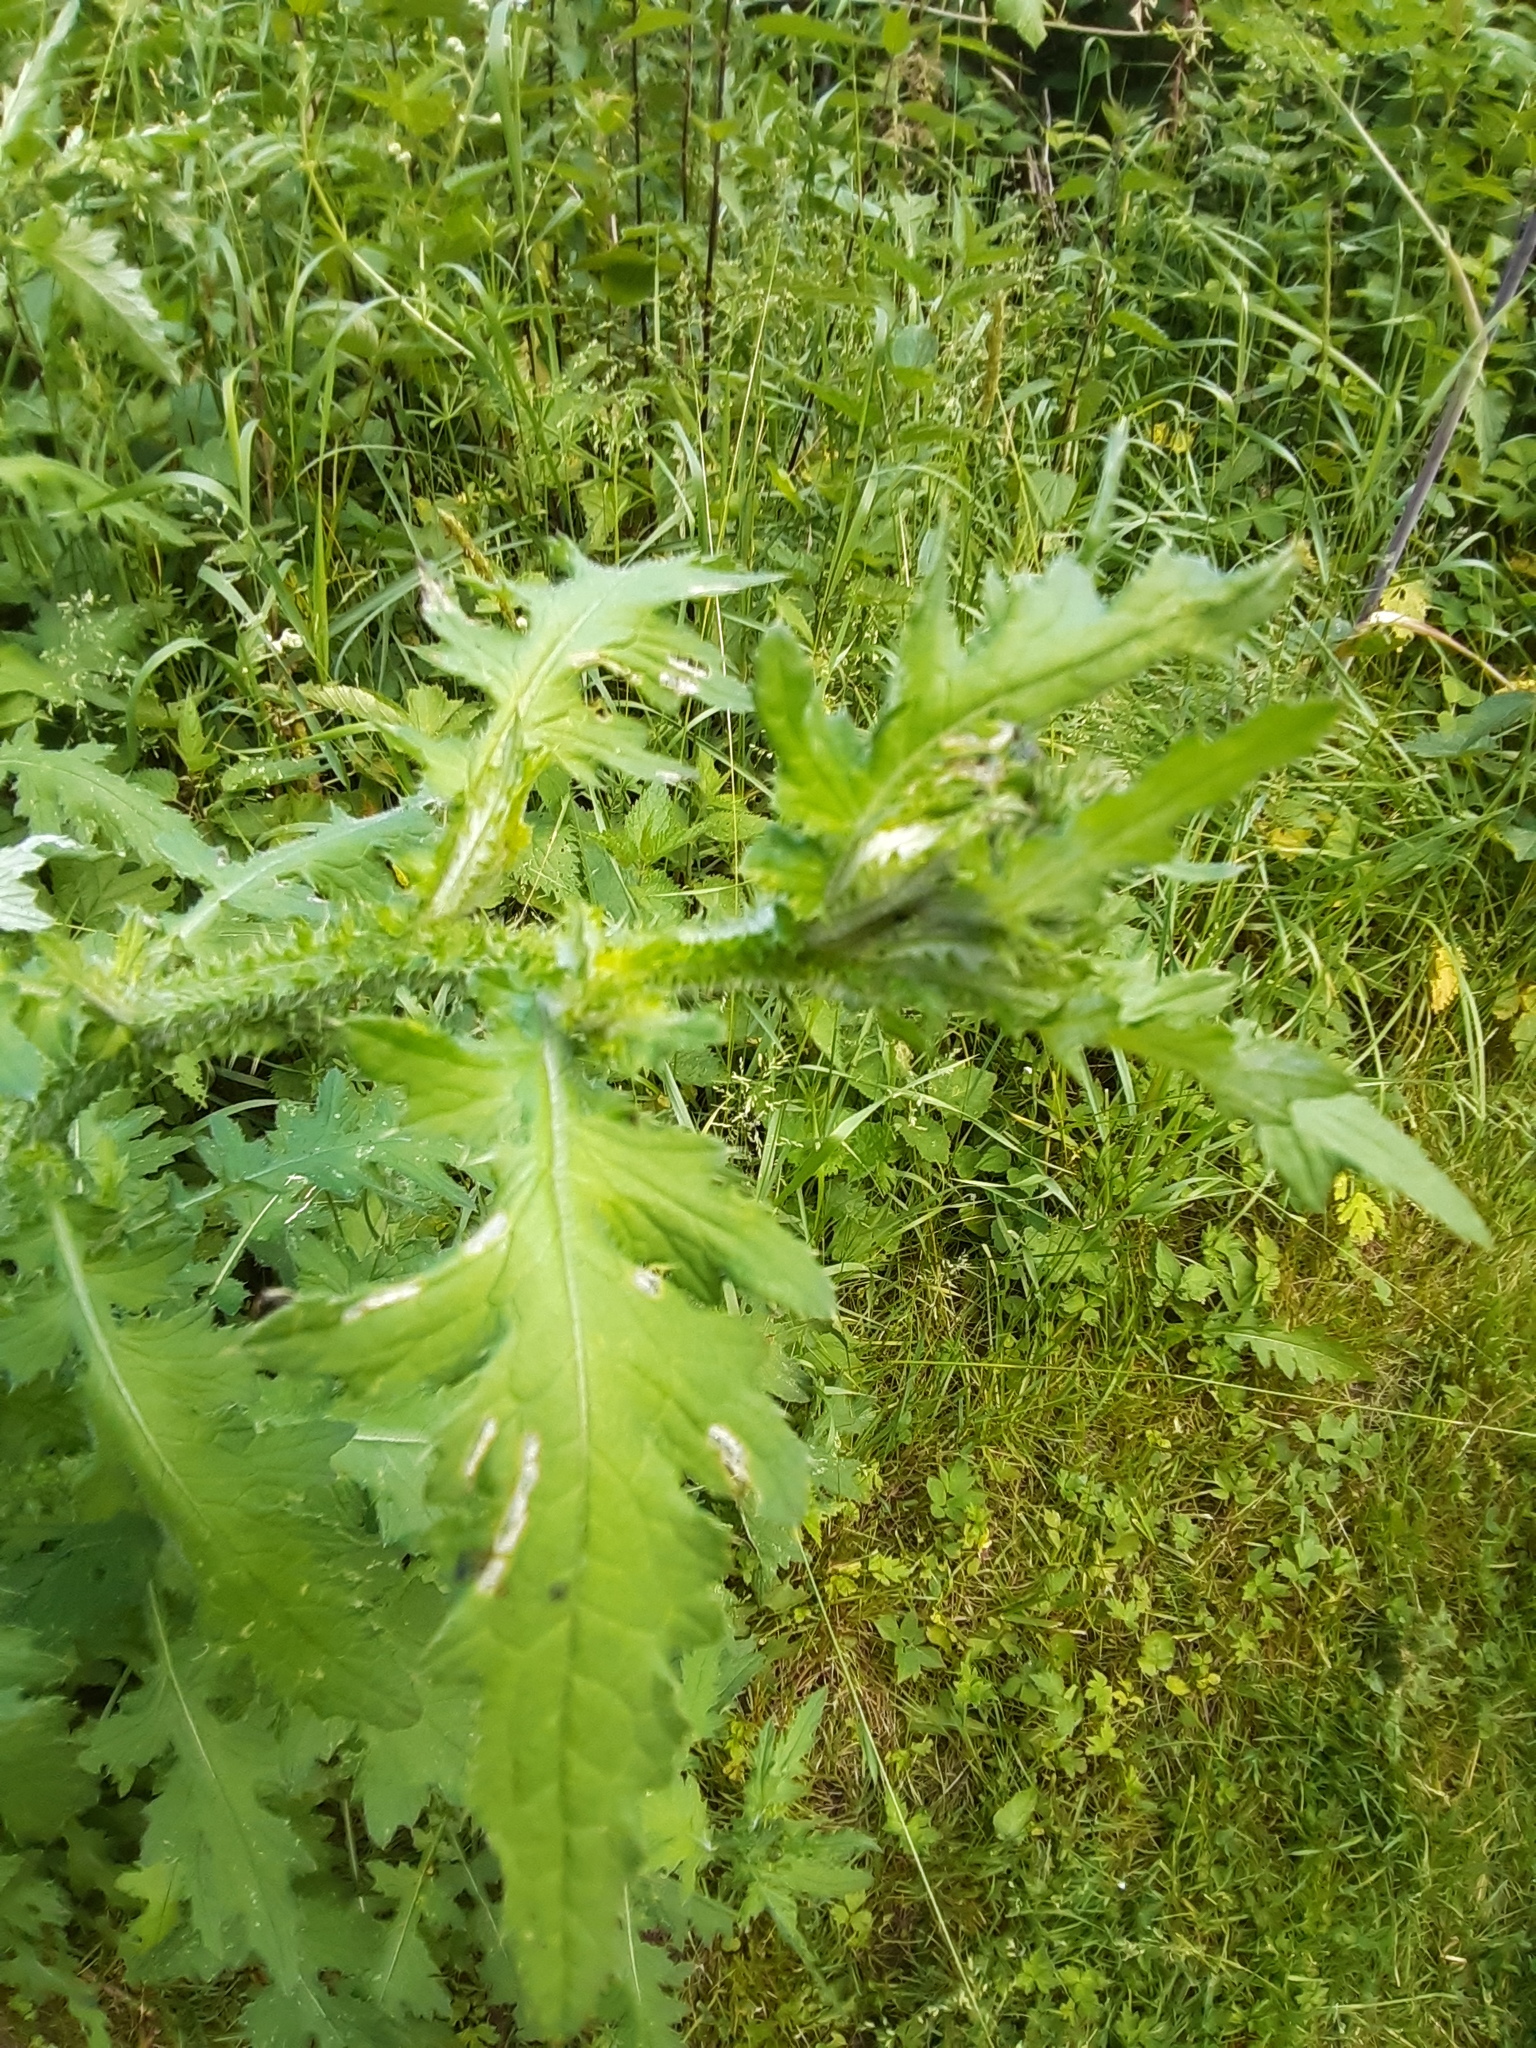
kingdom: Plantae
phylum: Tracheophyta
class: Magnoliopsida
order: Asterales
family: Asteraceae
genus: Carduus
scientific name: Carduus crispus
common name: Welted thistle
